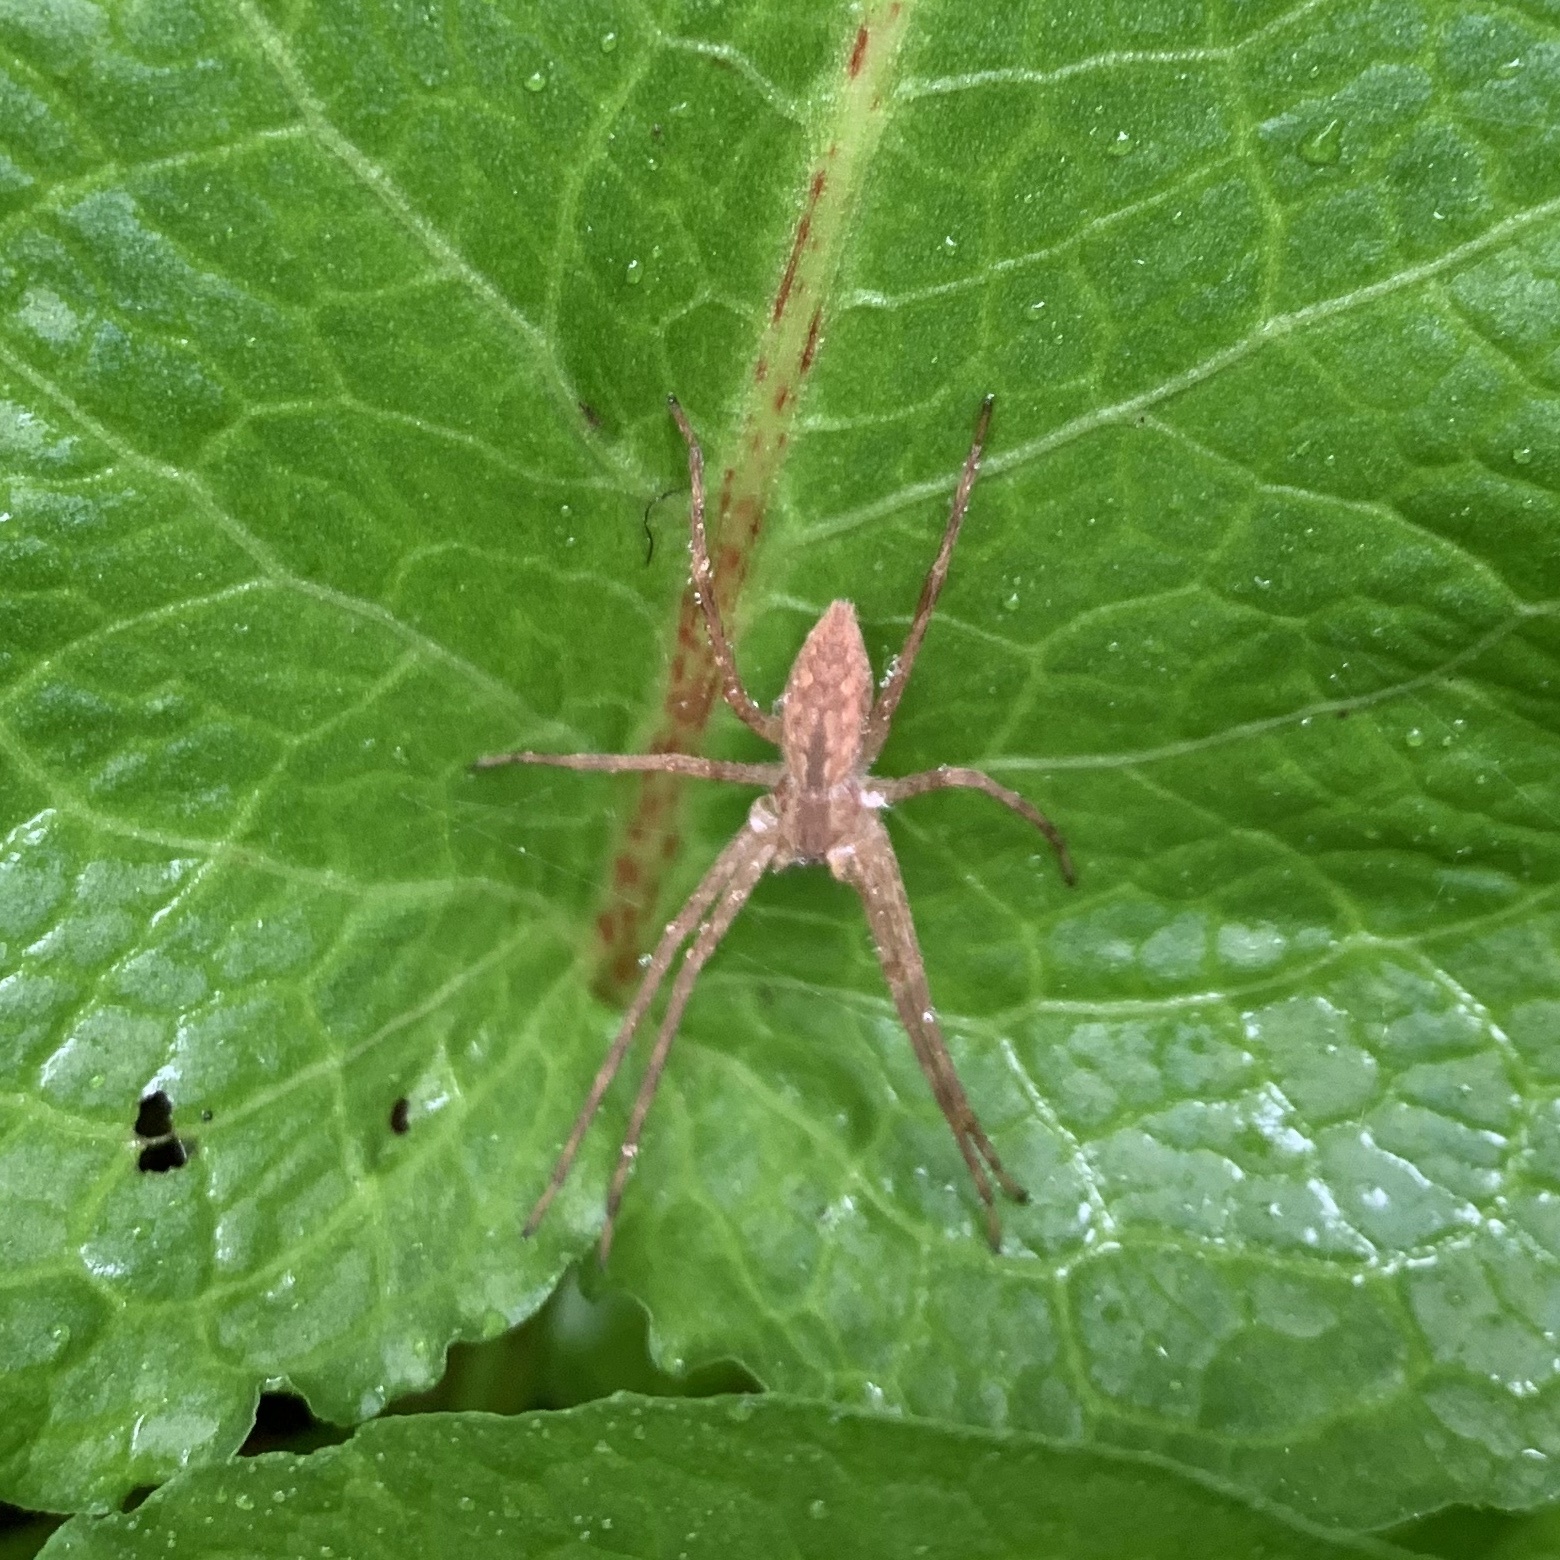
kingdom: Animalia
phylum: Arthropoda
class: Arachnida
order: Araneae
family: Pisauridae
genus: Pisaurina
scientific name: Pisaurina mira
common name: American nursery web spider
